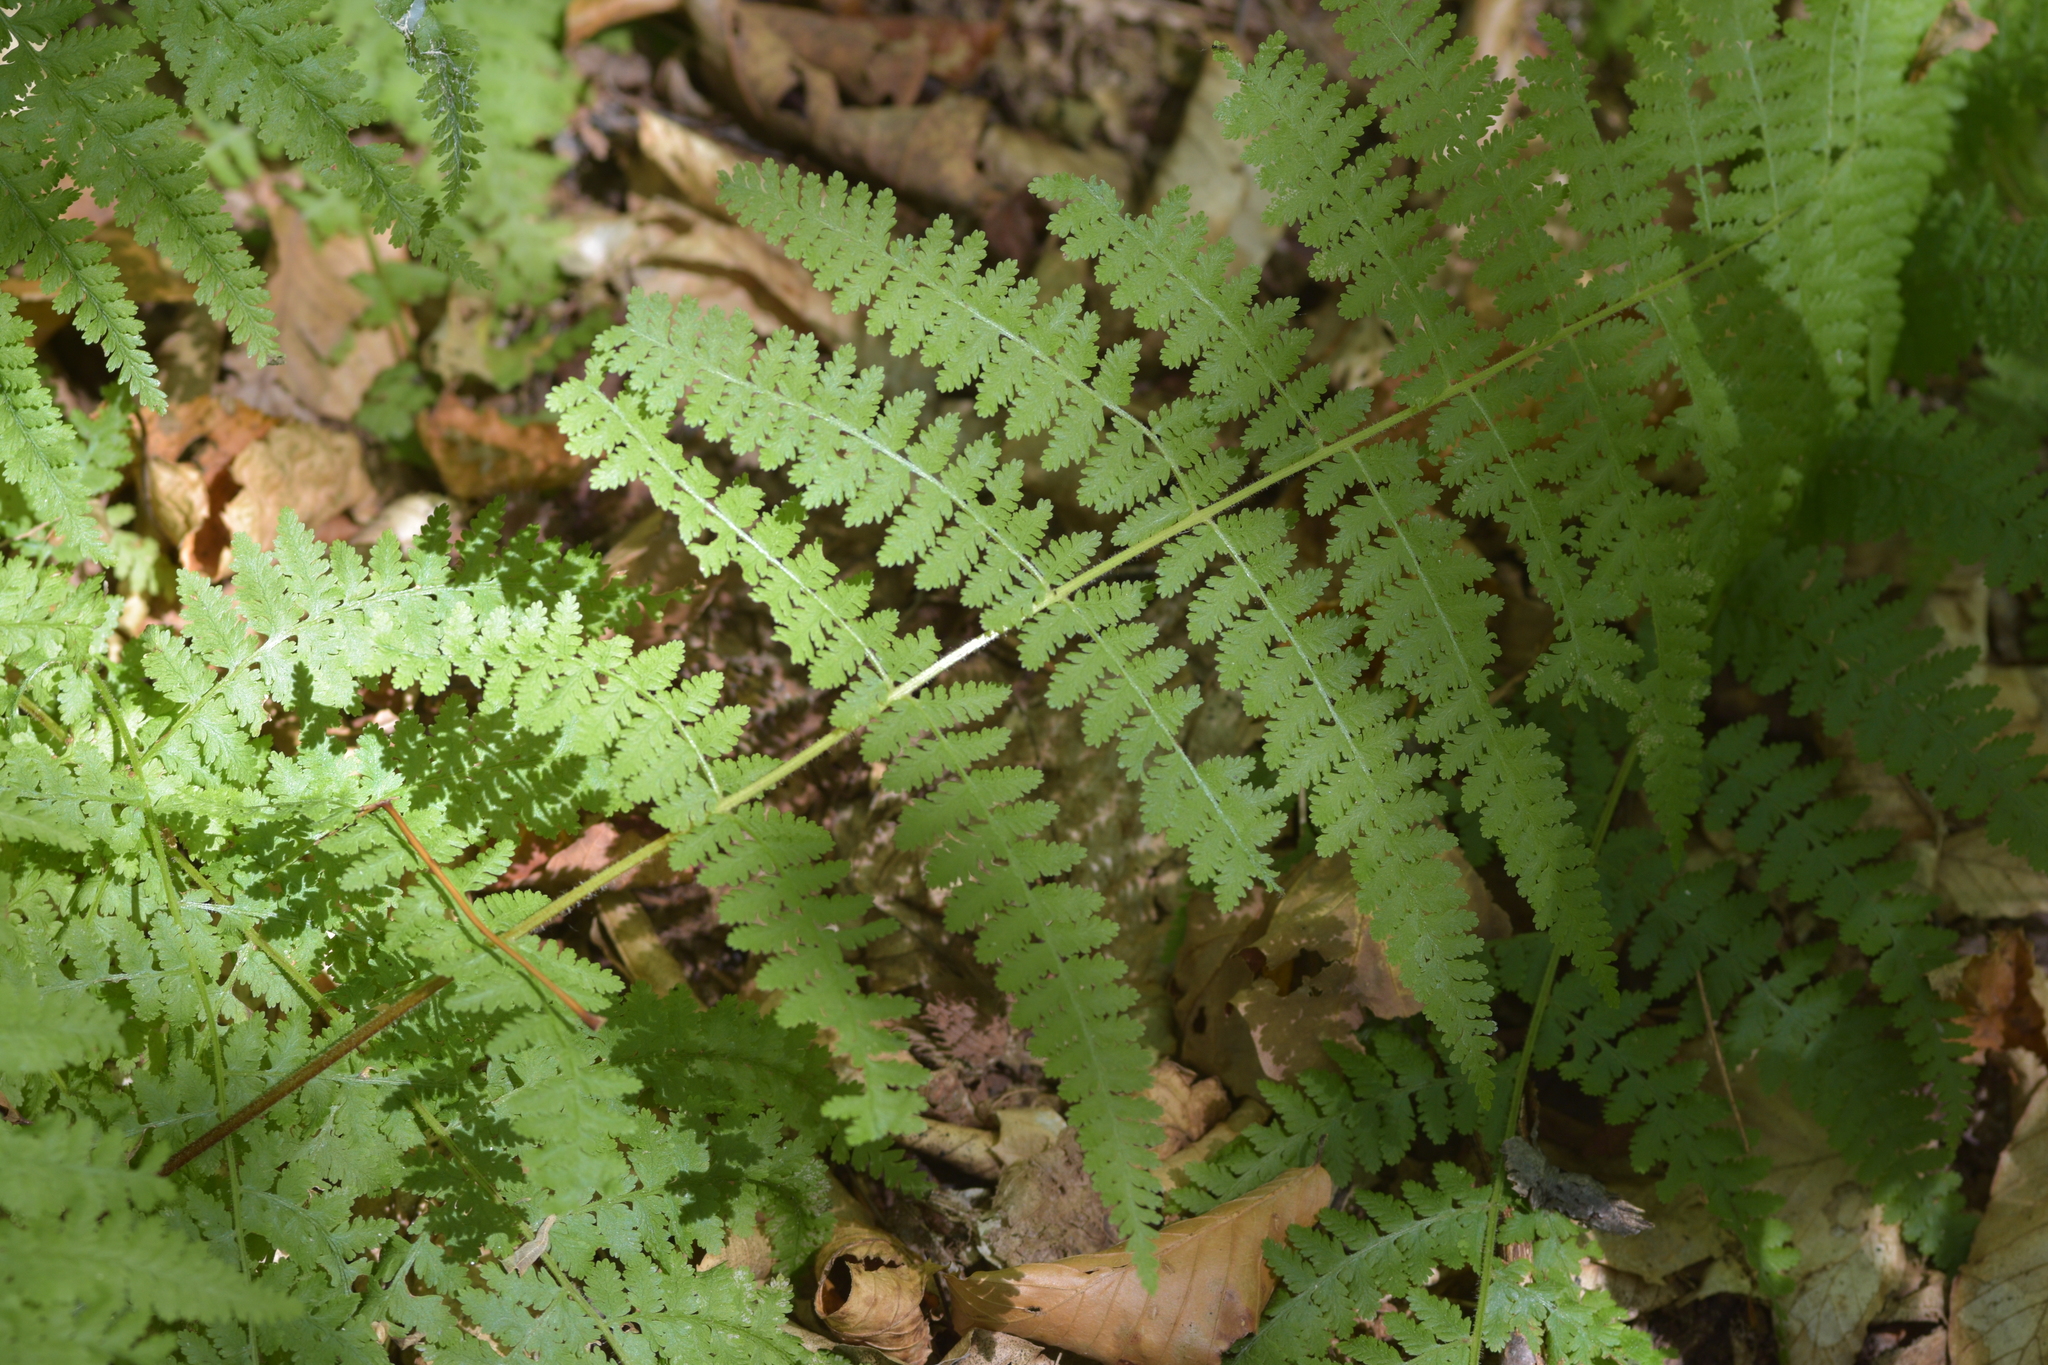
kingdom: Plantae
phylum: Tracheophyta
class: Polypodiopsida
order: Polypodiales
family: Dennstaedtiaceae
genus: Sitobolium
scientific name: Sitobolium punctilobum
